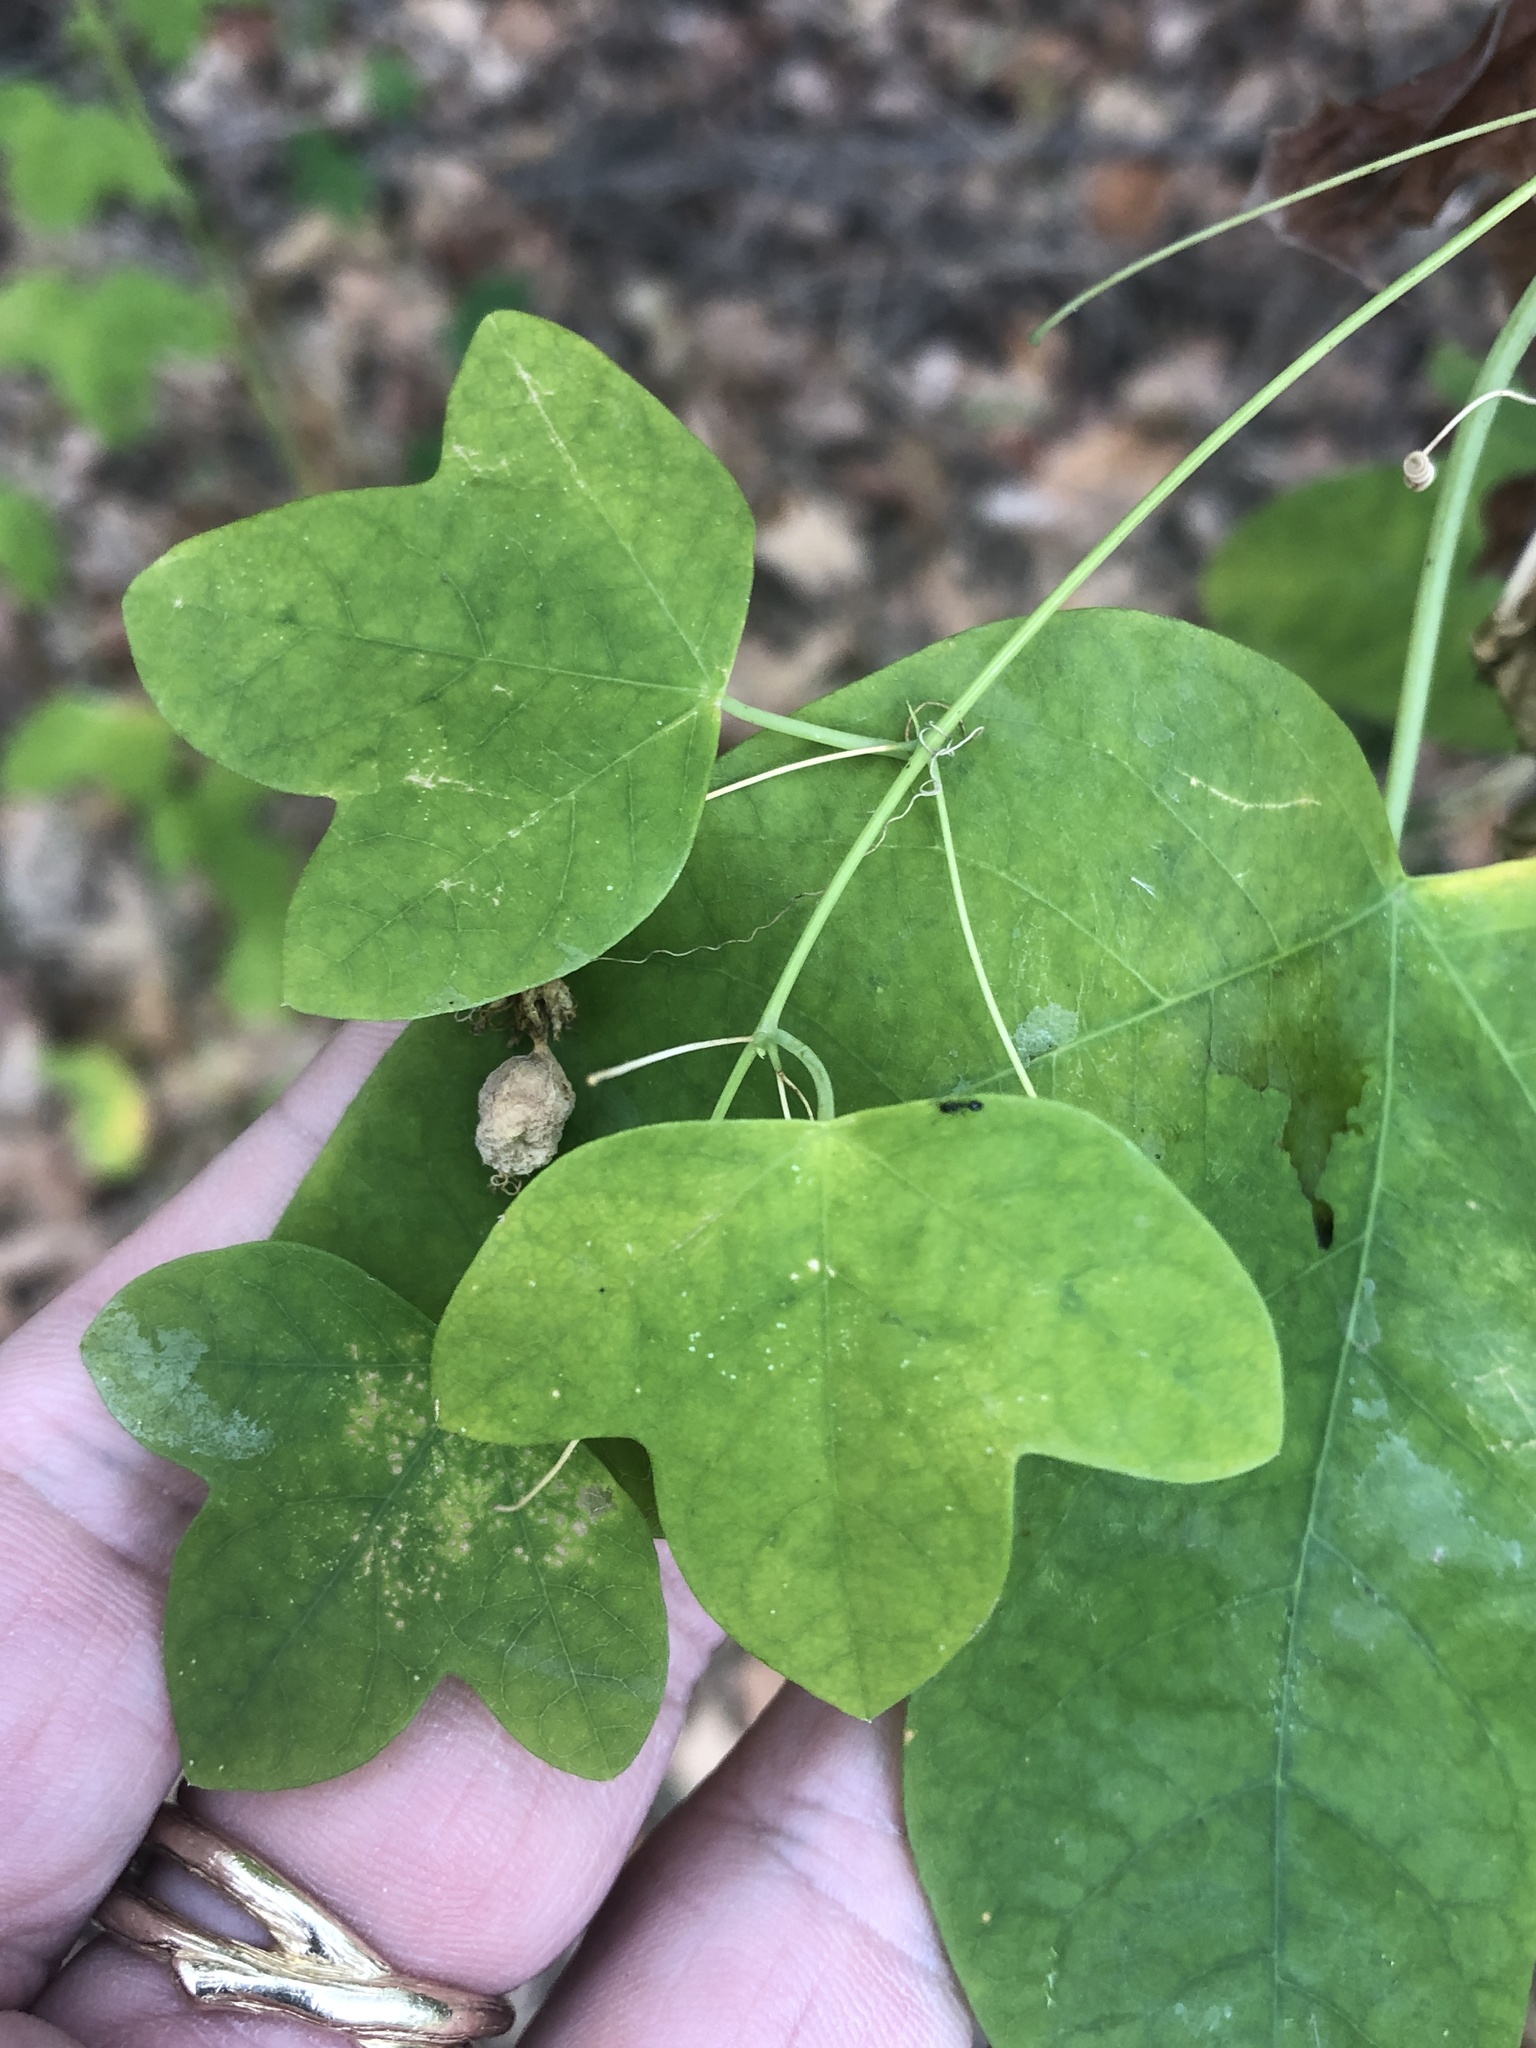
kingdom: Plantae
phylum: Tracheophyta
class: Magnoliopsida
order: Malpighiales
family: Passifloraceae
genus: Passiflora
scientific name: Passiflora lutea
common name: Yellow passionflower
